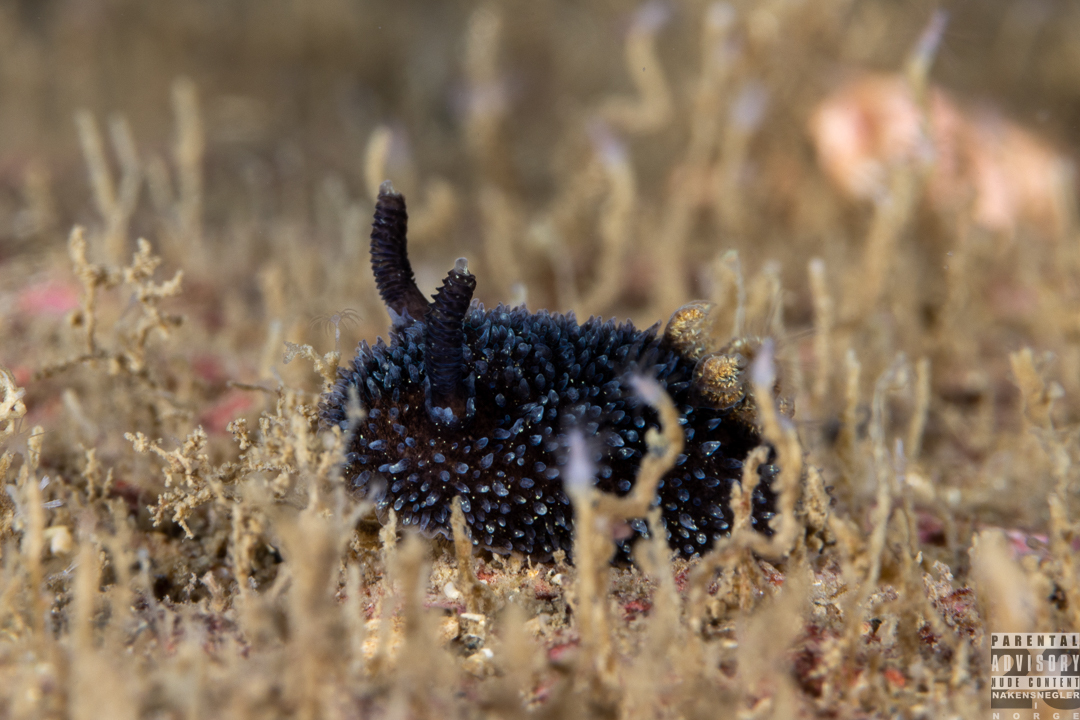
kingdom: Animalia
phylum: Mollusca
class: Gastropoda
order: Nudibranchia
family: Onchidorididae
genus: Acanthodoris
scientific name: Acanthodoris pilosa
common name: Hairy spiny doris
